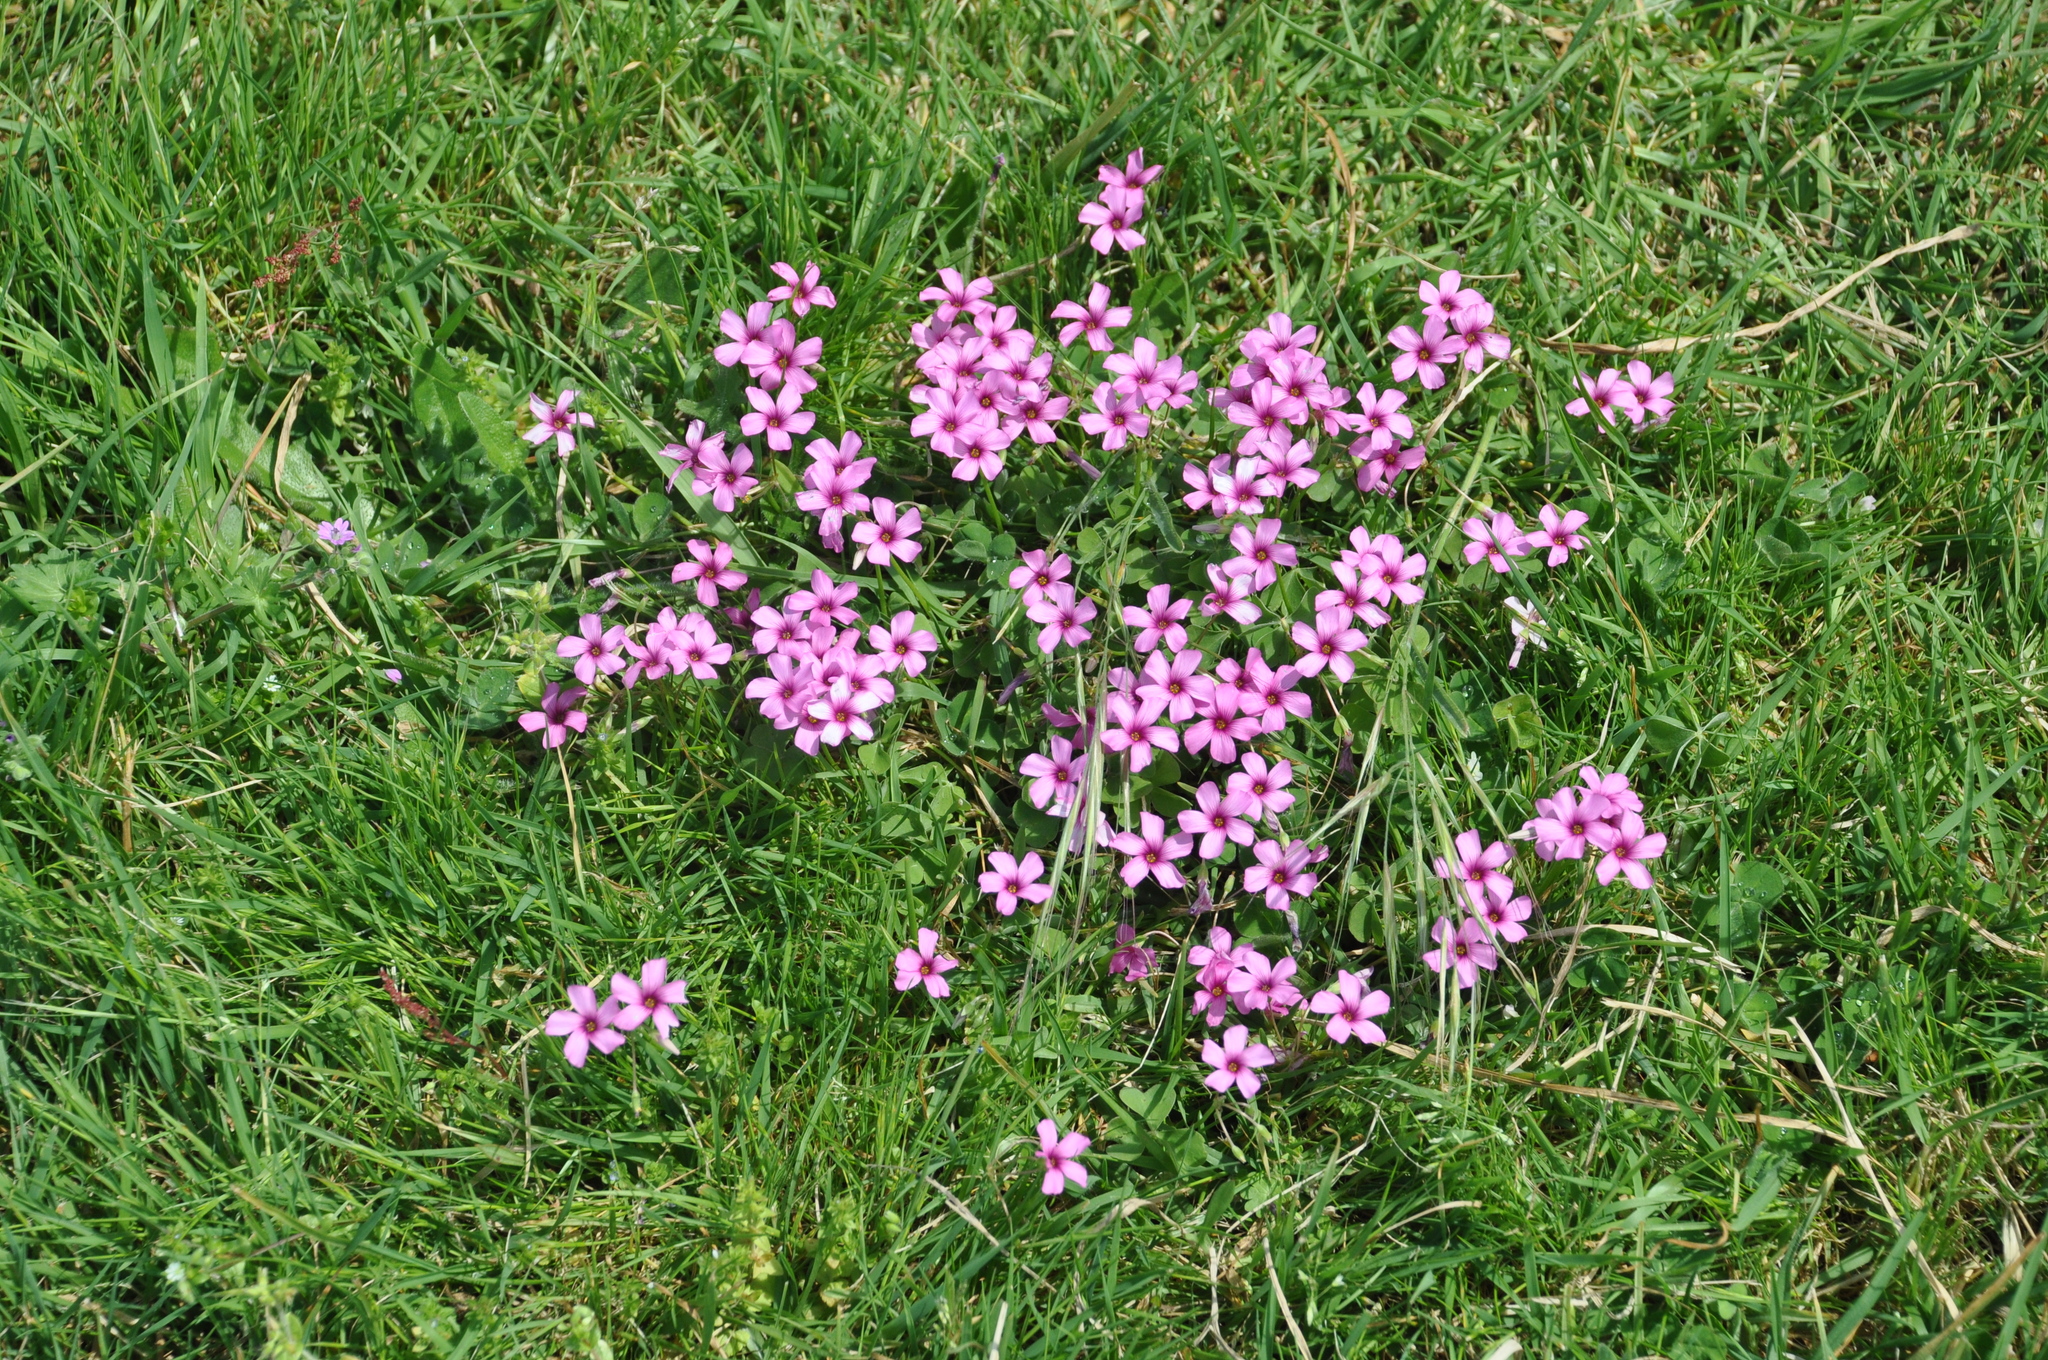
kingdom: Plantae
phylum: Tracheophyta
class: Magnoliopsida
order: Oxalidales
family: Oxalidaceae
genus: Oxalis
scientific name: Oxalis articulata
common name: Pink-sorrel
